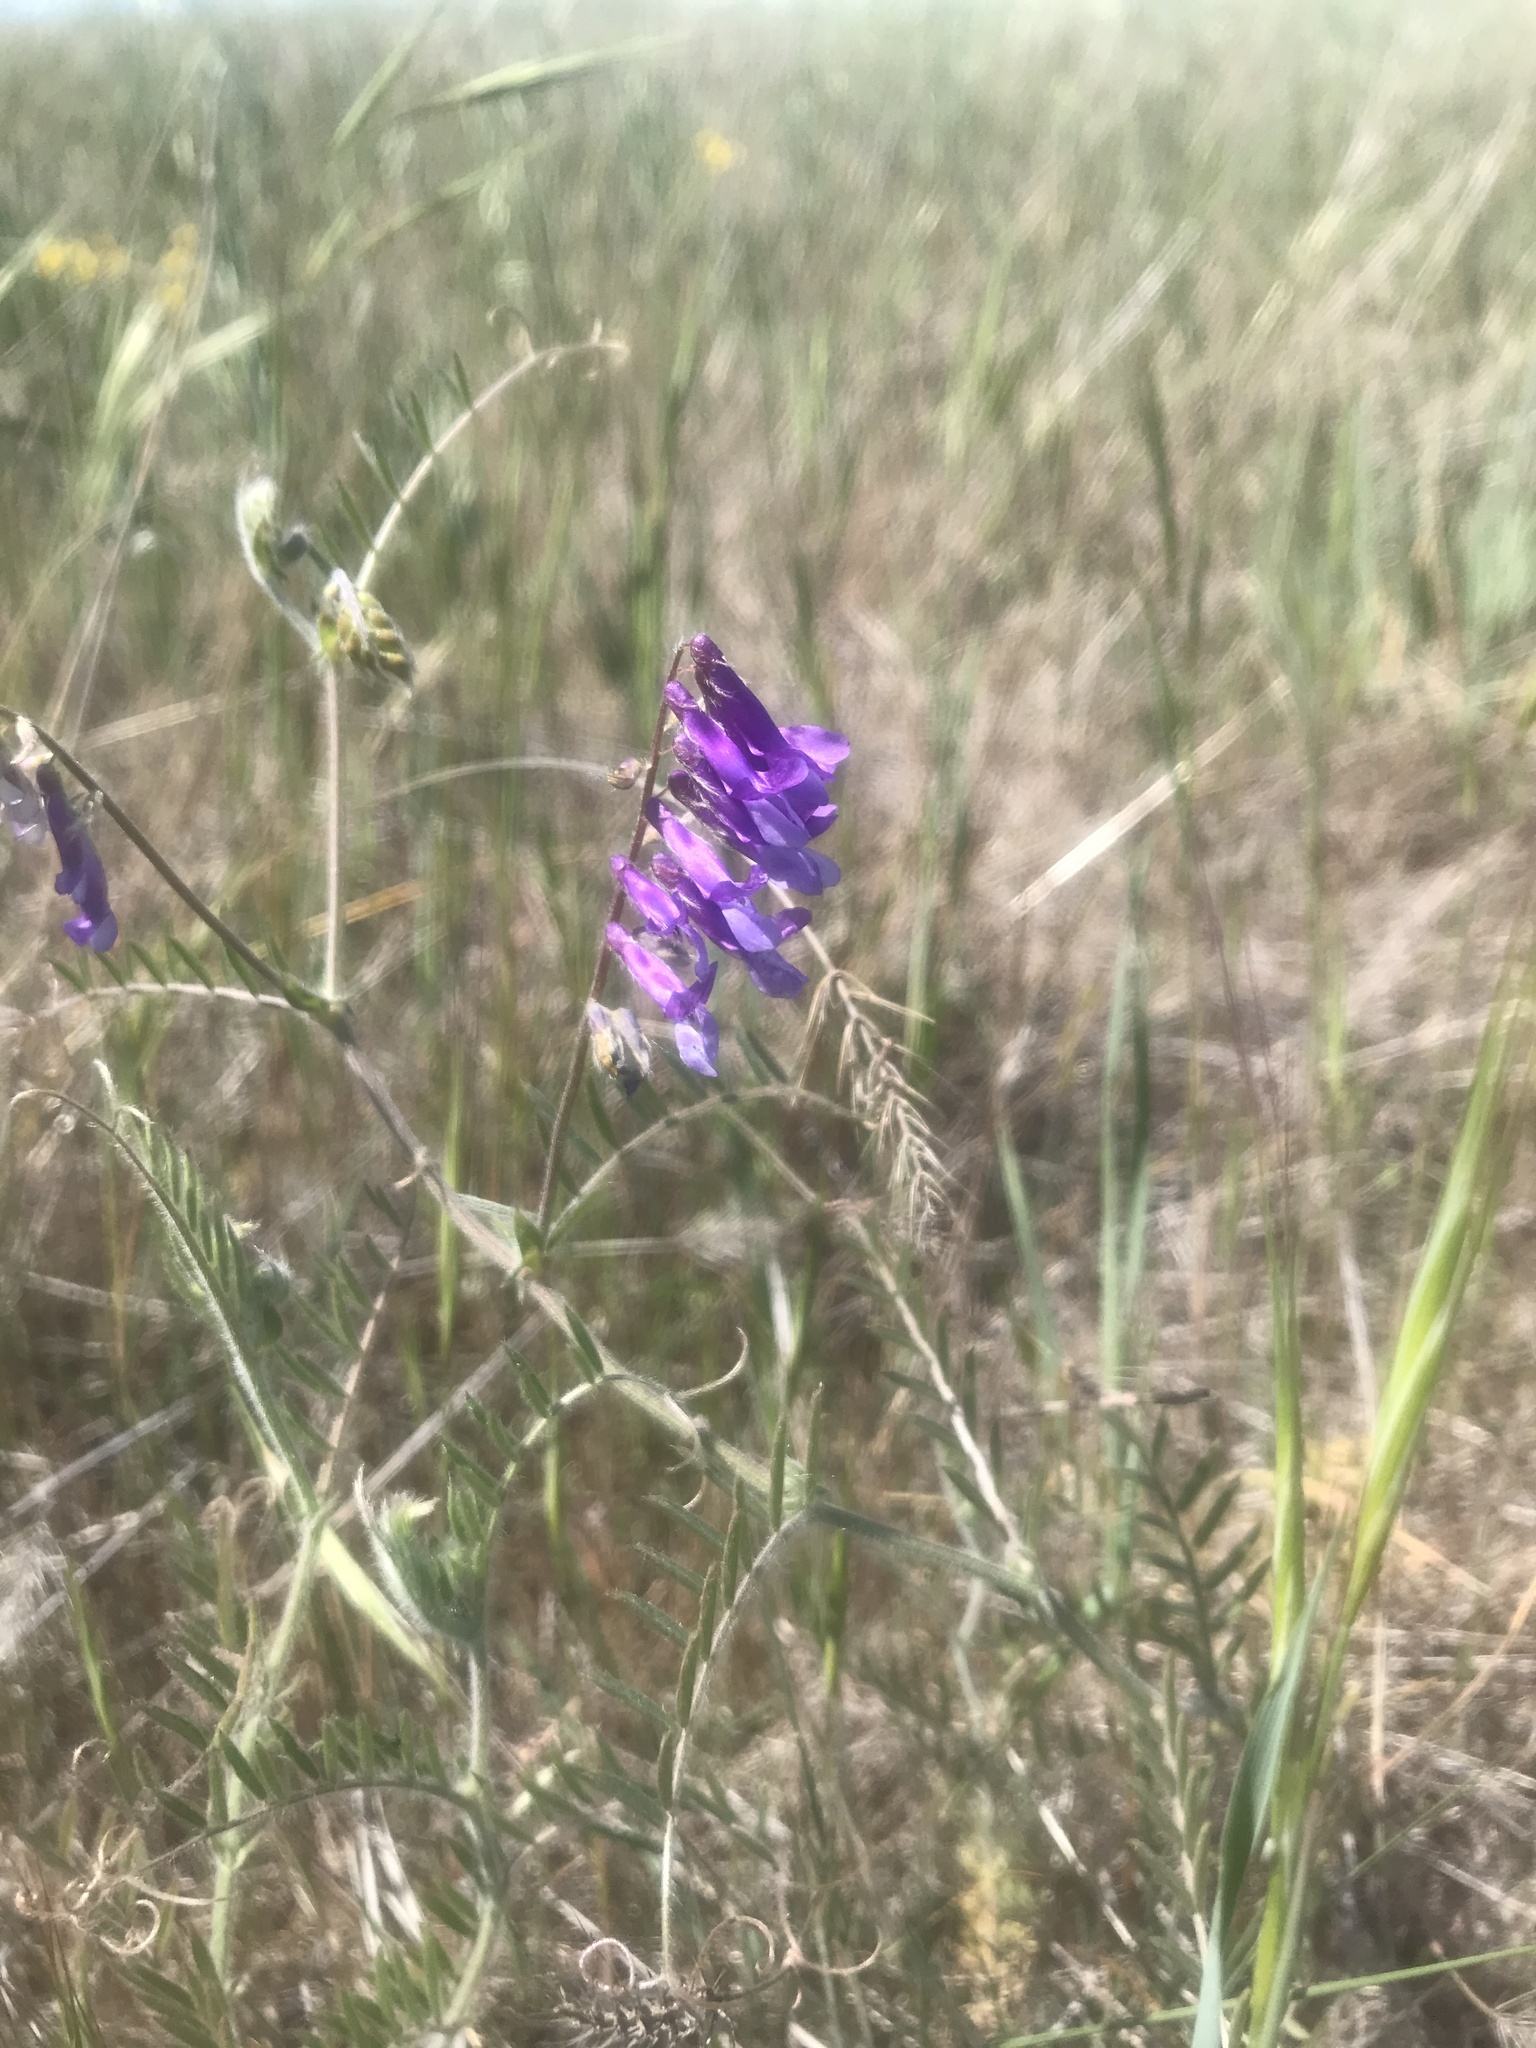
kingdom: Plantae
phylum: Tracheophyta
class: Magnoliopsida
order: Fabales
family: Fabaceae
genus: Vicia
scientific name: Vicia villosa
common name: Fodder vetch
